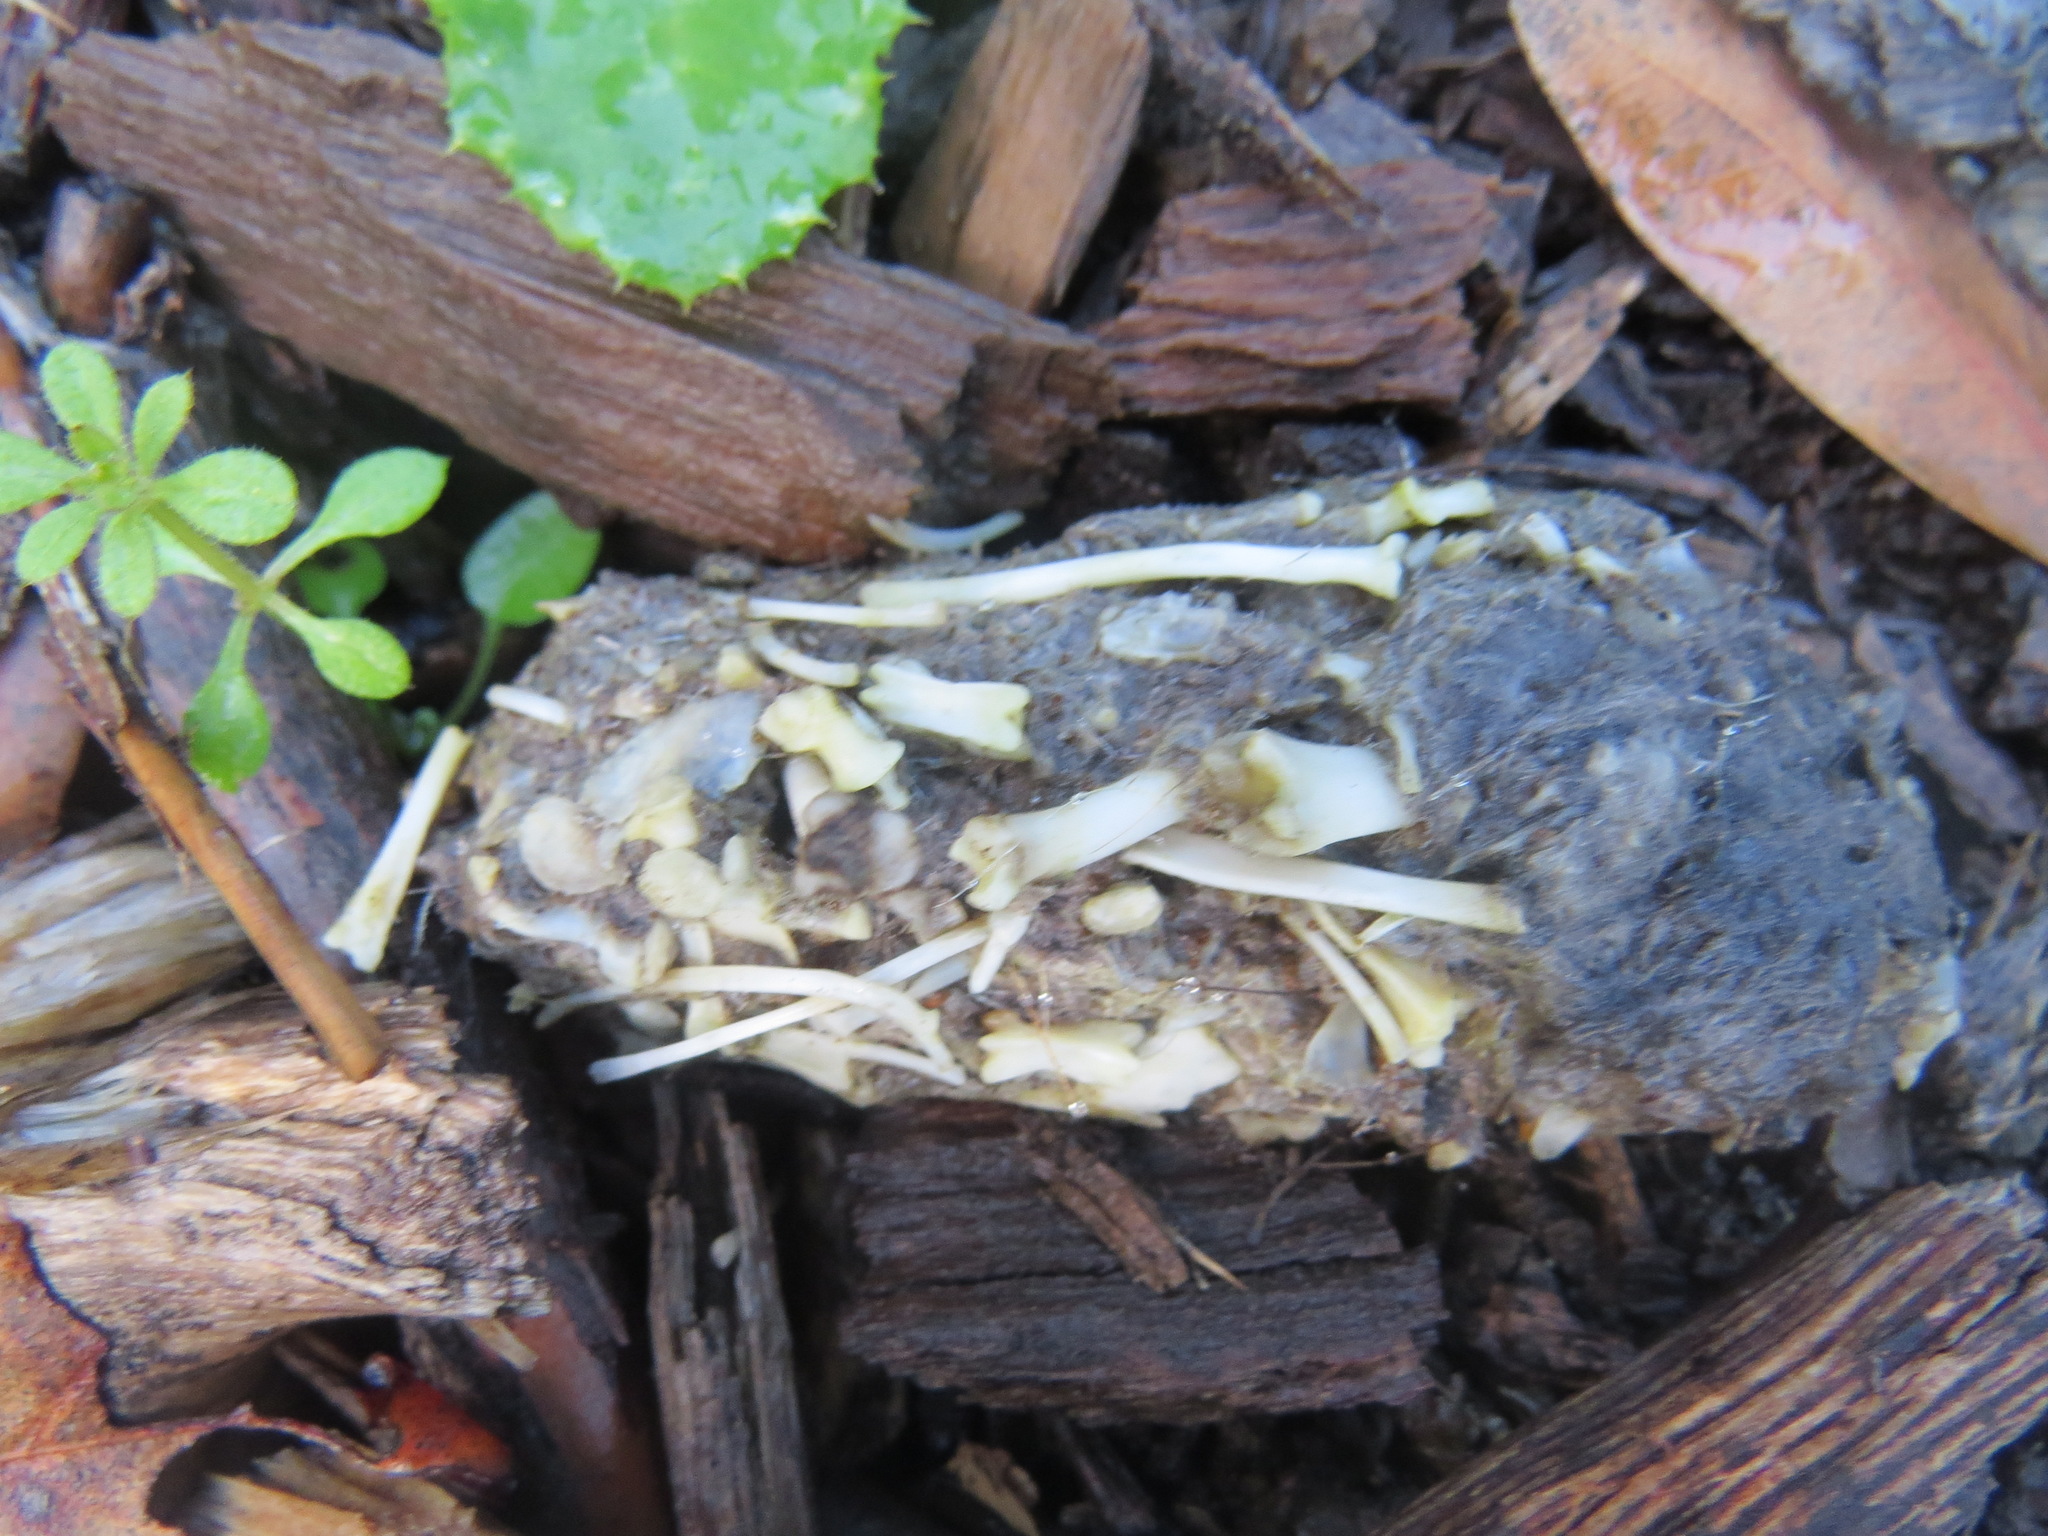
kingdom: Animalia
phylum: Chordata
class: Aves
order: Strigiformes
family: Strigidae
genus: Bubo
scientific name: Bubo virginianus
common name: Great horned owl
